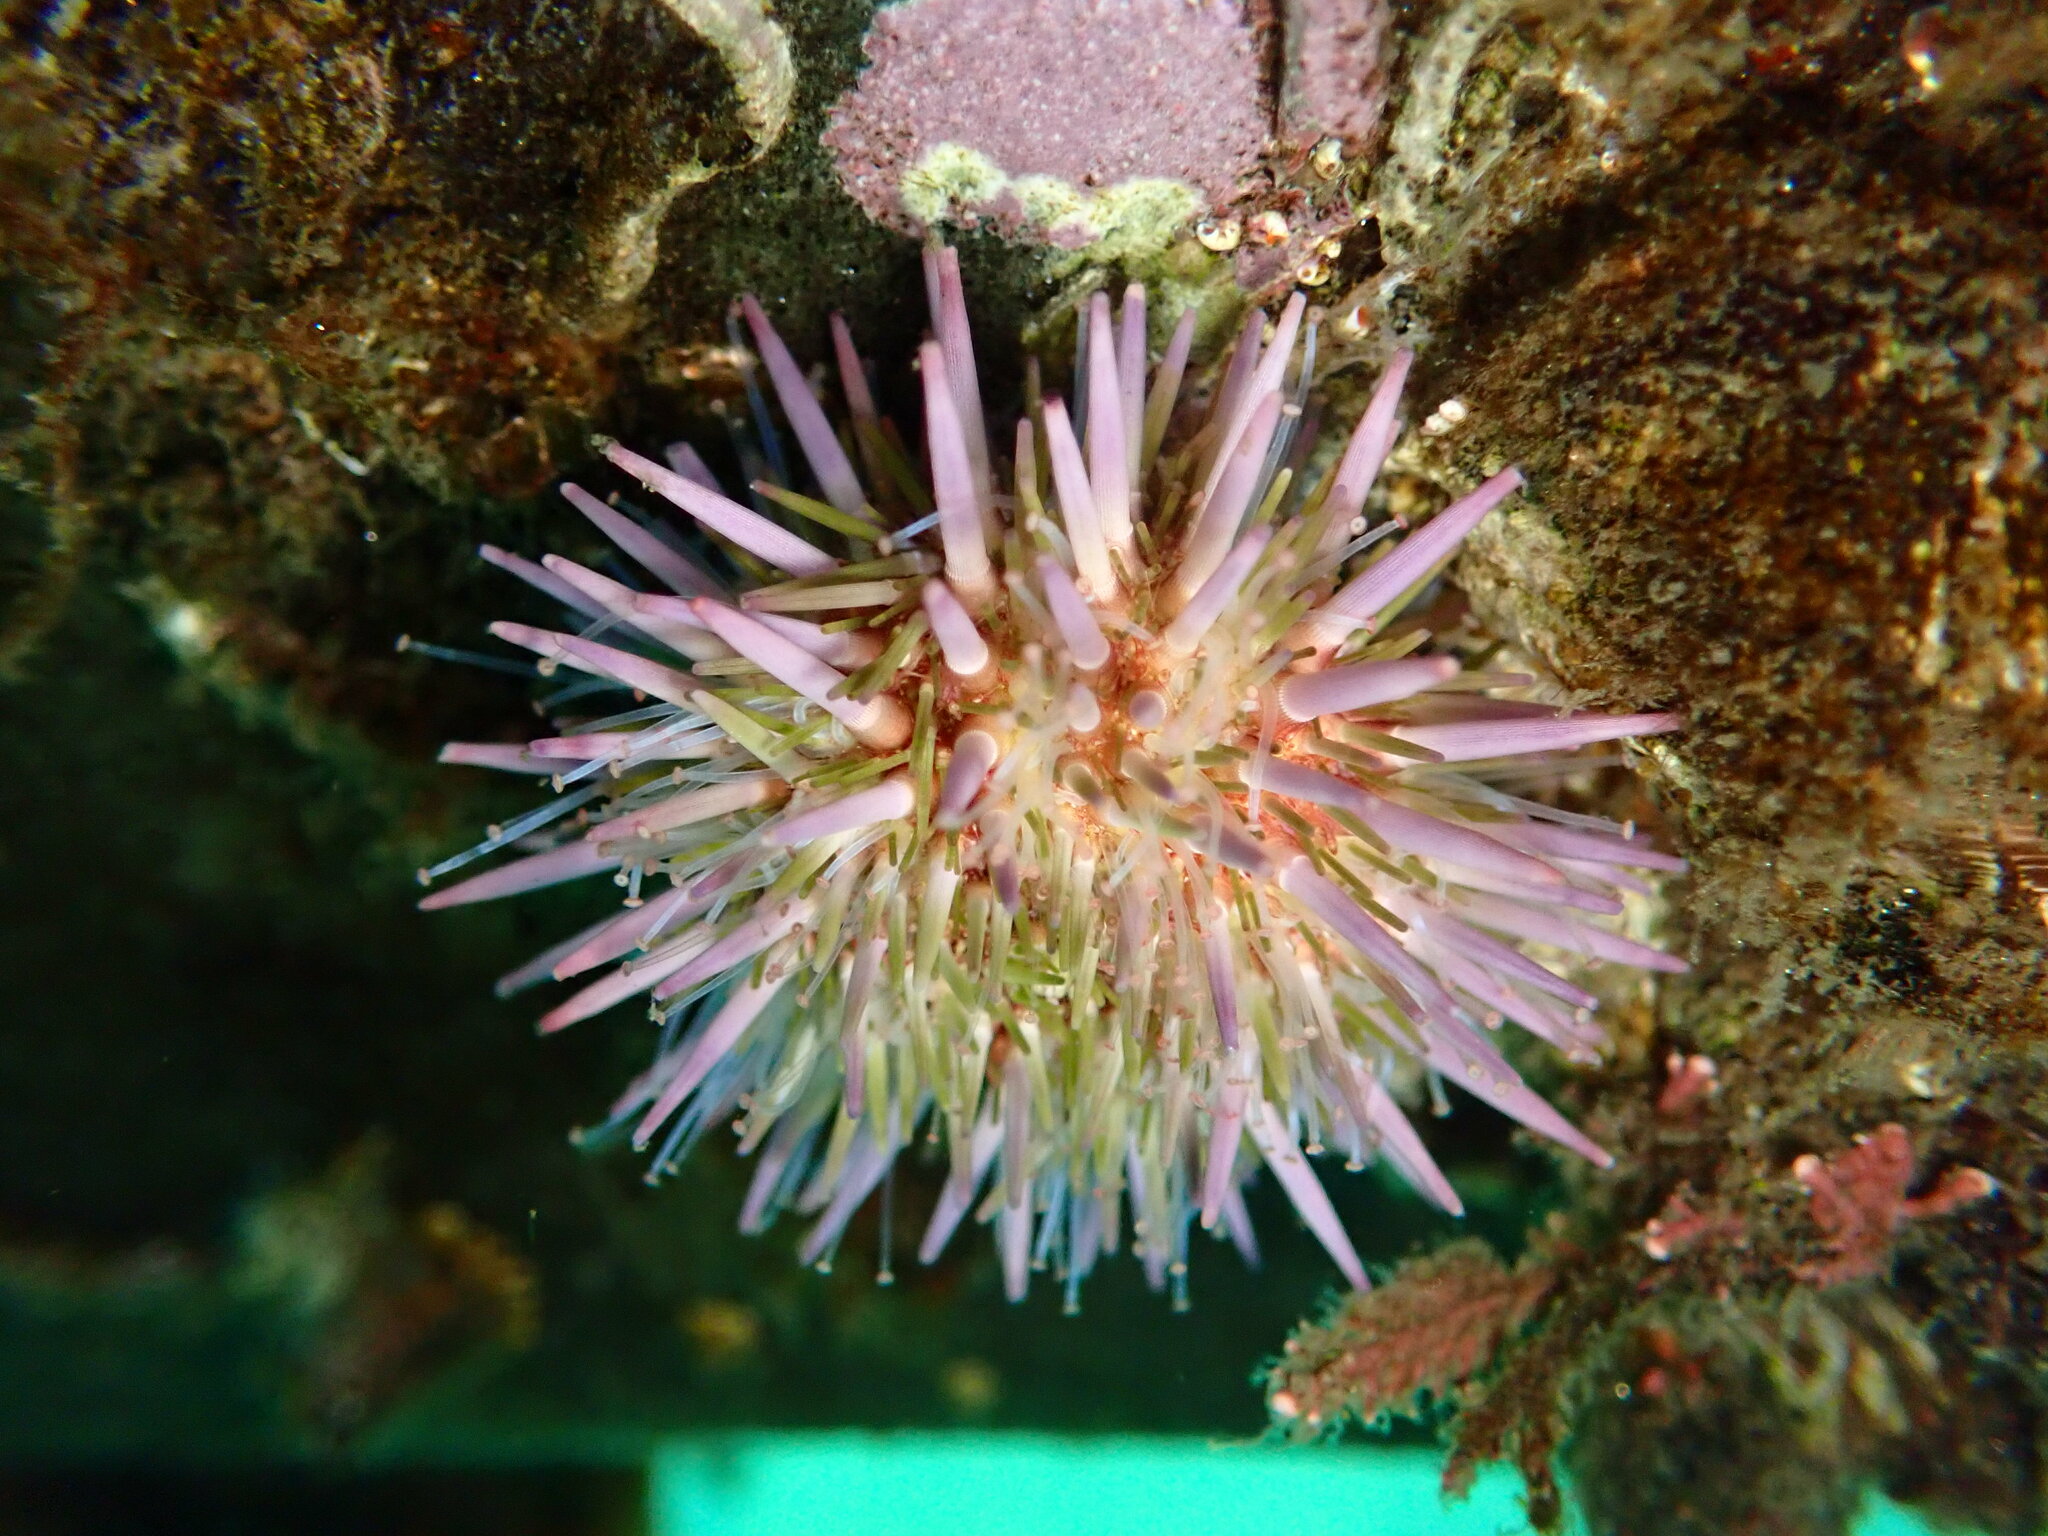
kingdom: Animalia
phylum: Echinodermata
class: Echinoidea
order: Camarodonta
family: Strongylocentrotidae
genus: Strongylocentrotus
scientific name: Strongylocentrotus purpuratus
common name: Purple sea urchin
